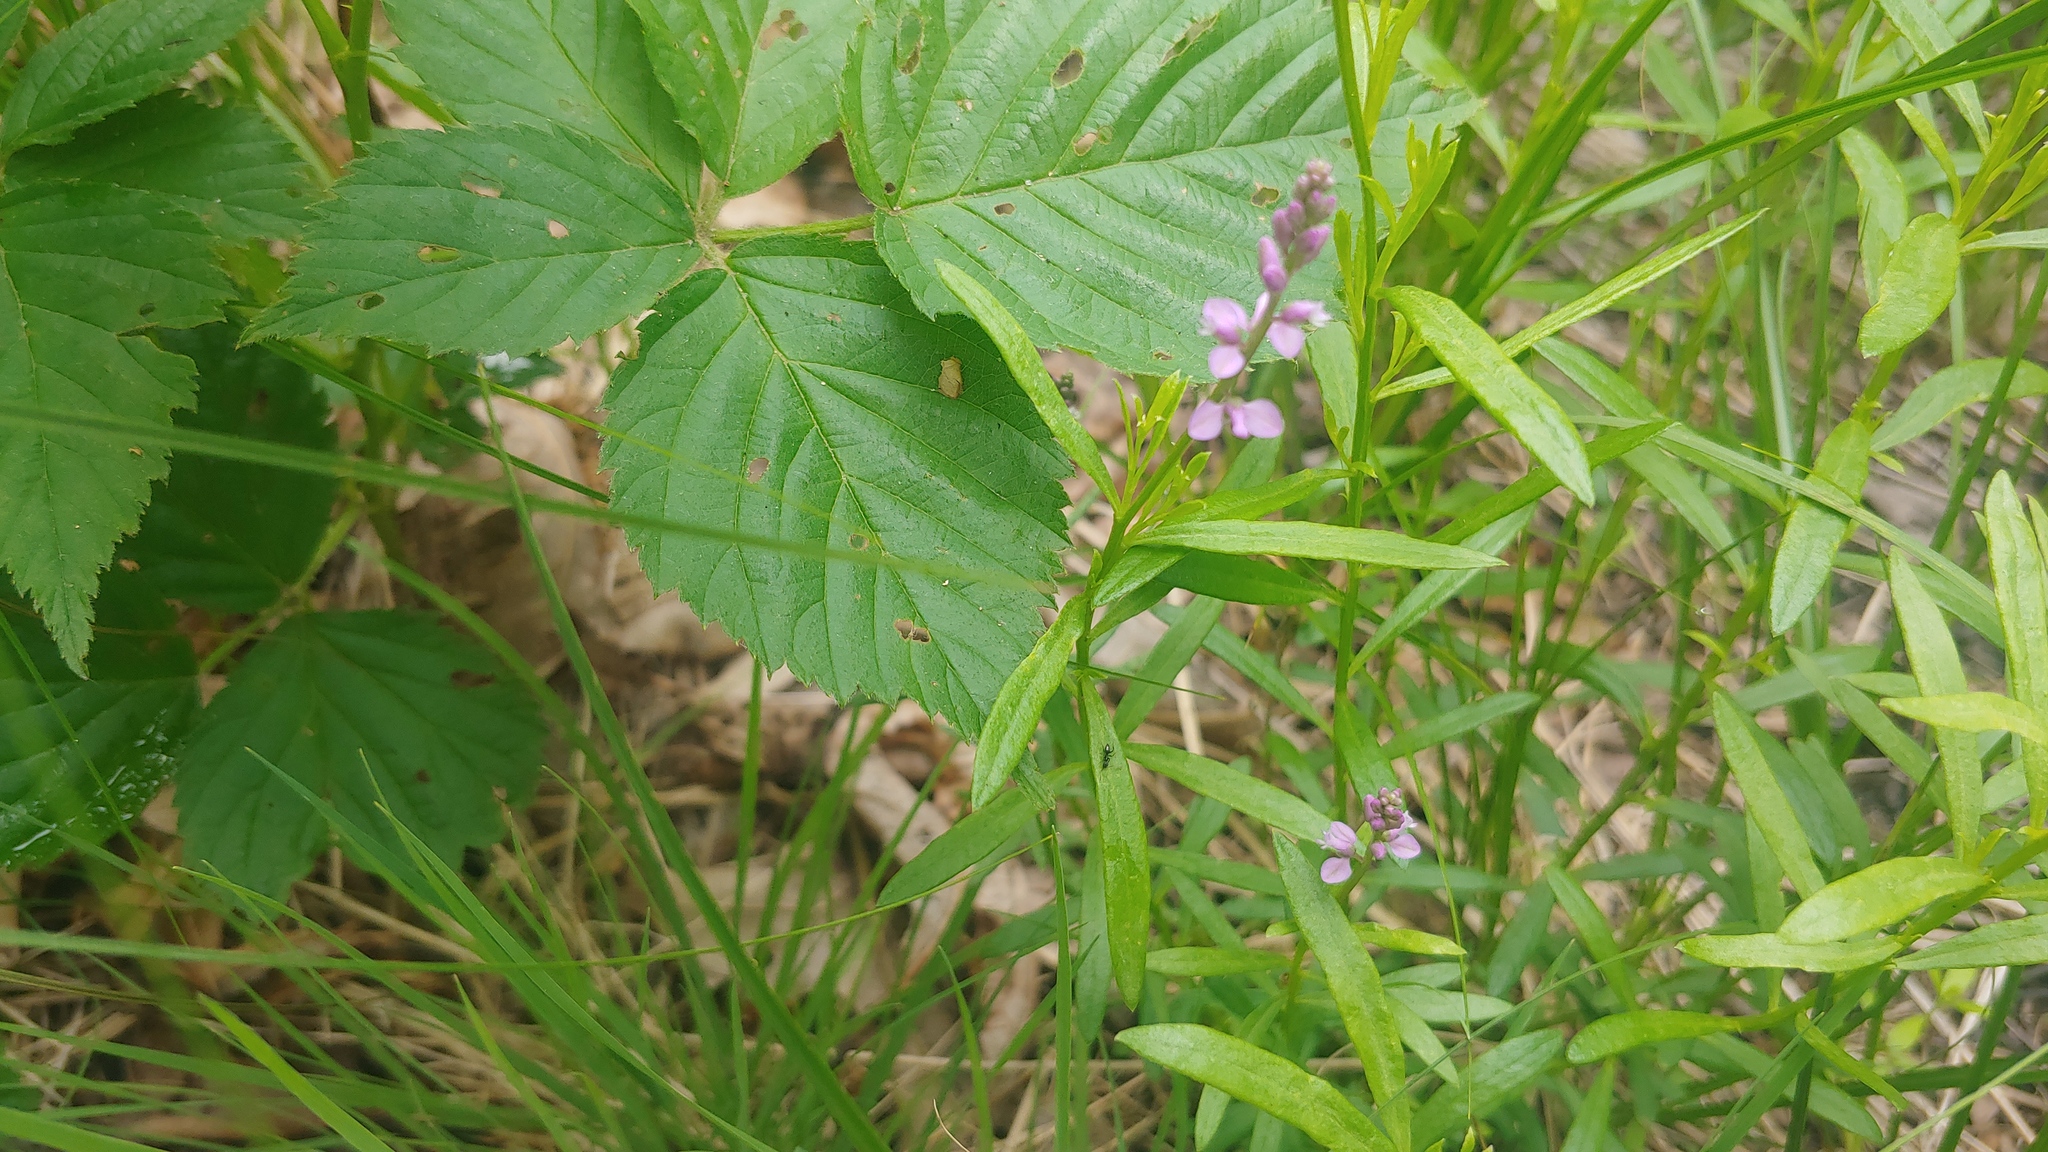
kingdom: Plantae
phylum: Tracheophyta
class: Magnoliopsida
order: Fabales
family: Polygalaceae
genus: Polygala
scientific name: Polygala polygama
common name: Bitter milkwort
